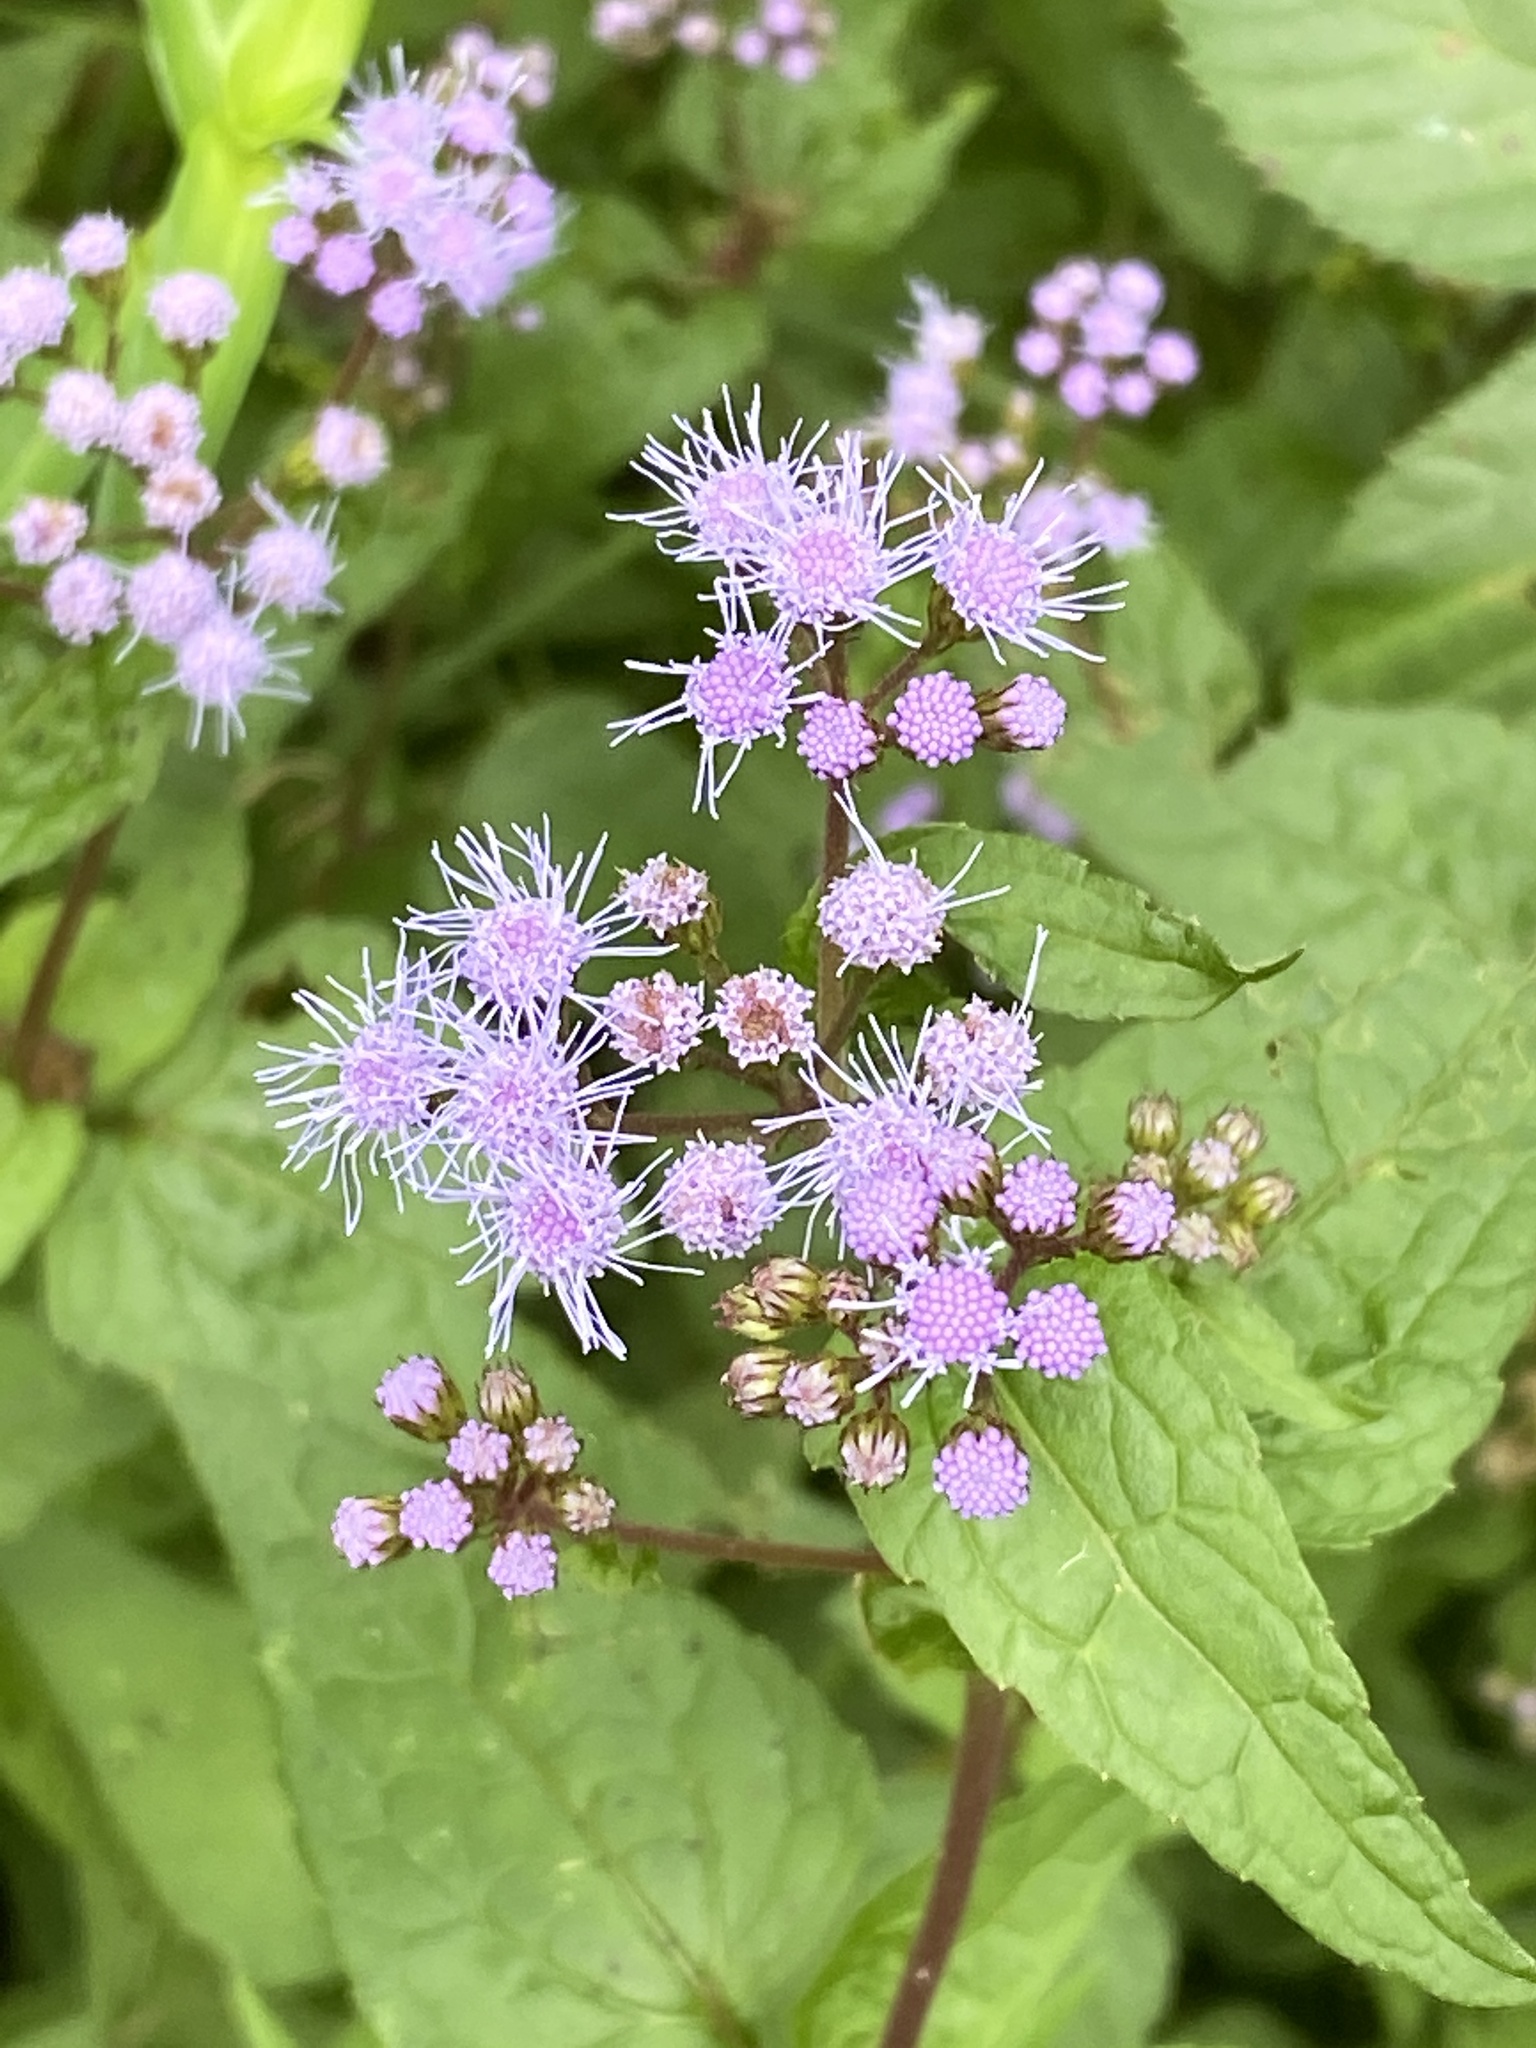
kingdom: Plantae
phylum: Tracheophyta
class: Magnoliopsida
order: Asterales
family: Asteraceae
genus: Conoclinium
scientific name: Conoclinium coelestinum
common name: Blue mistflower
